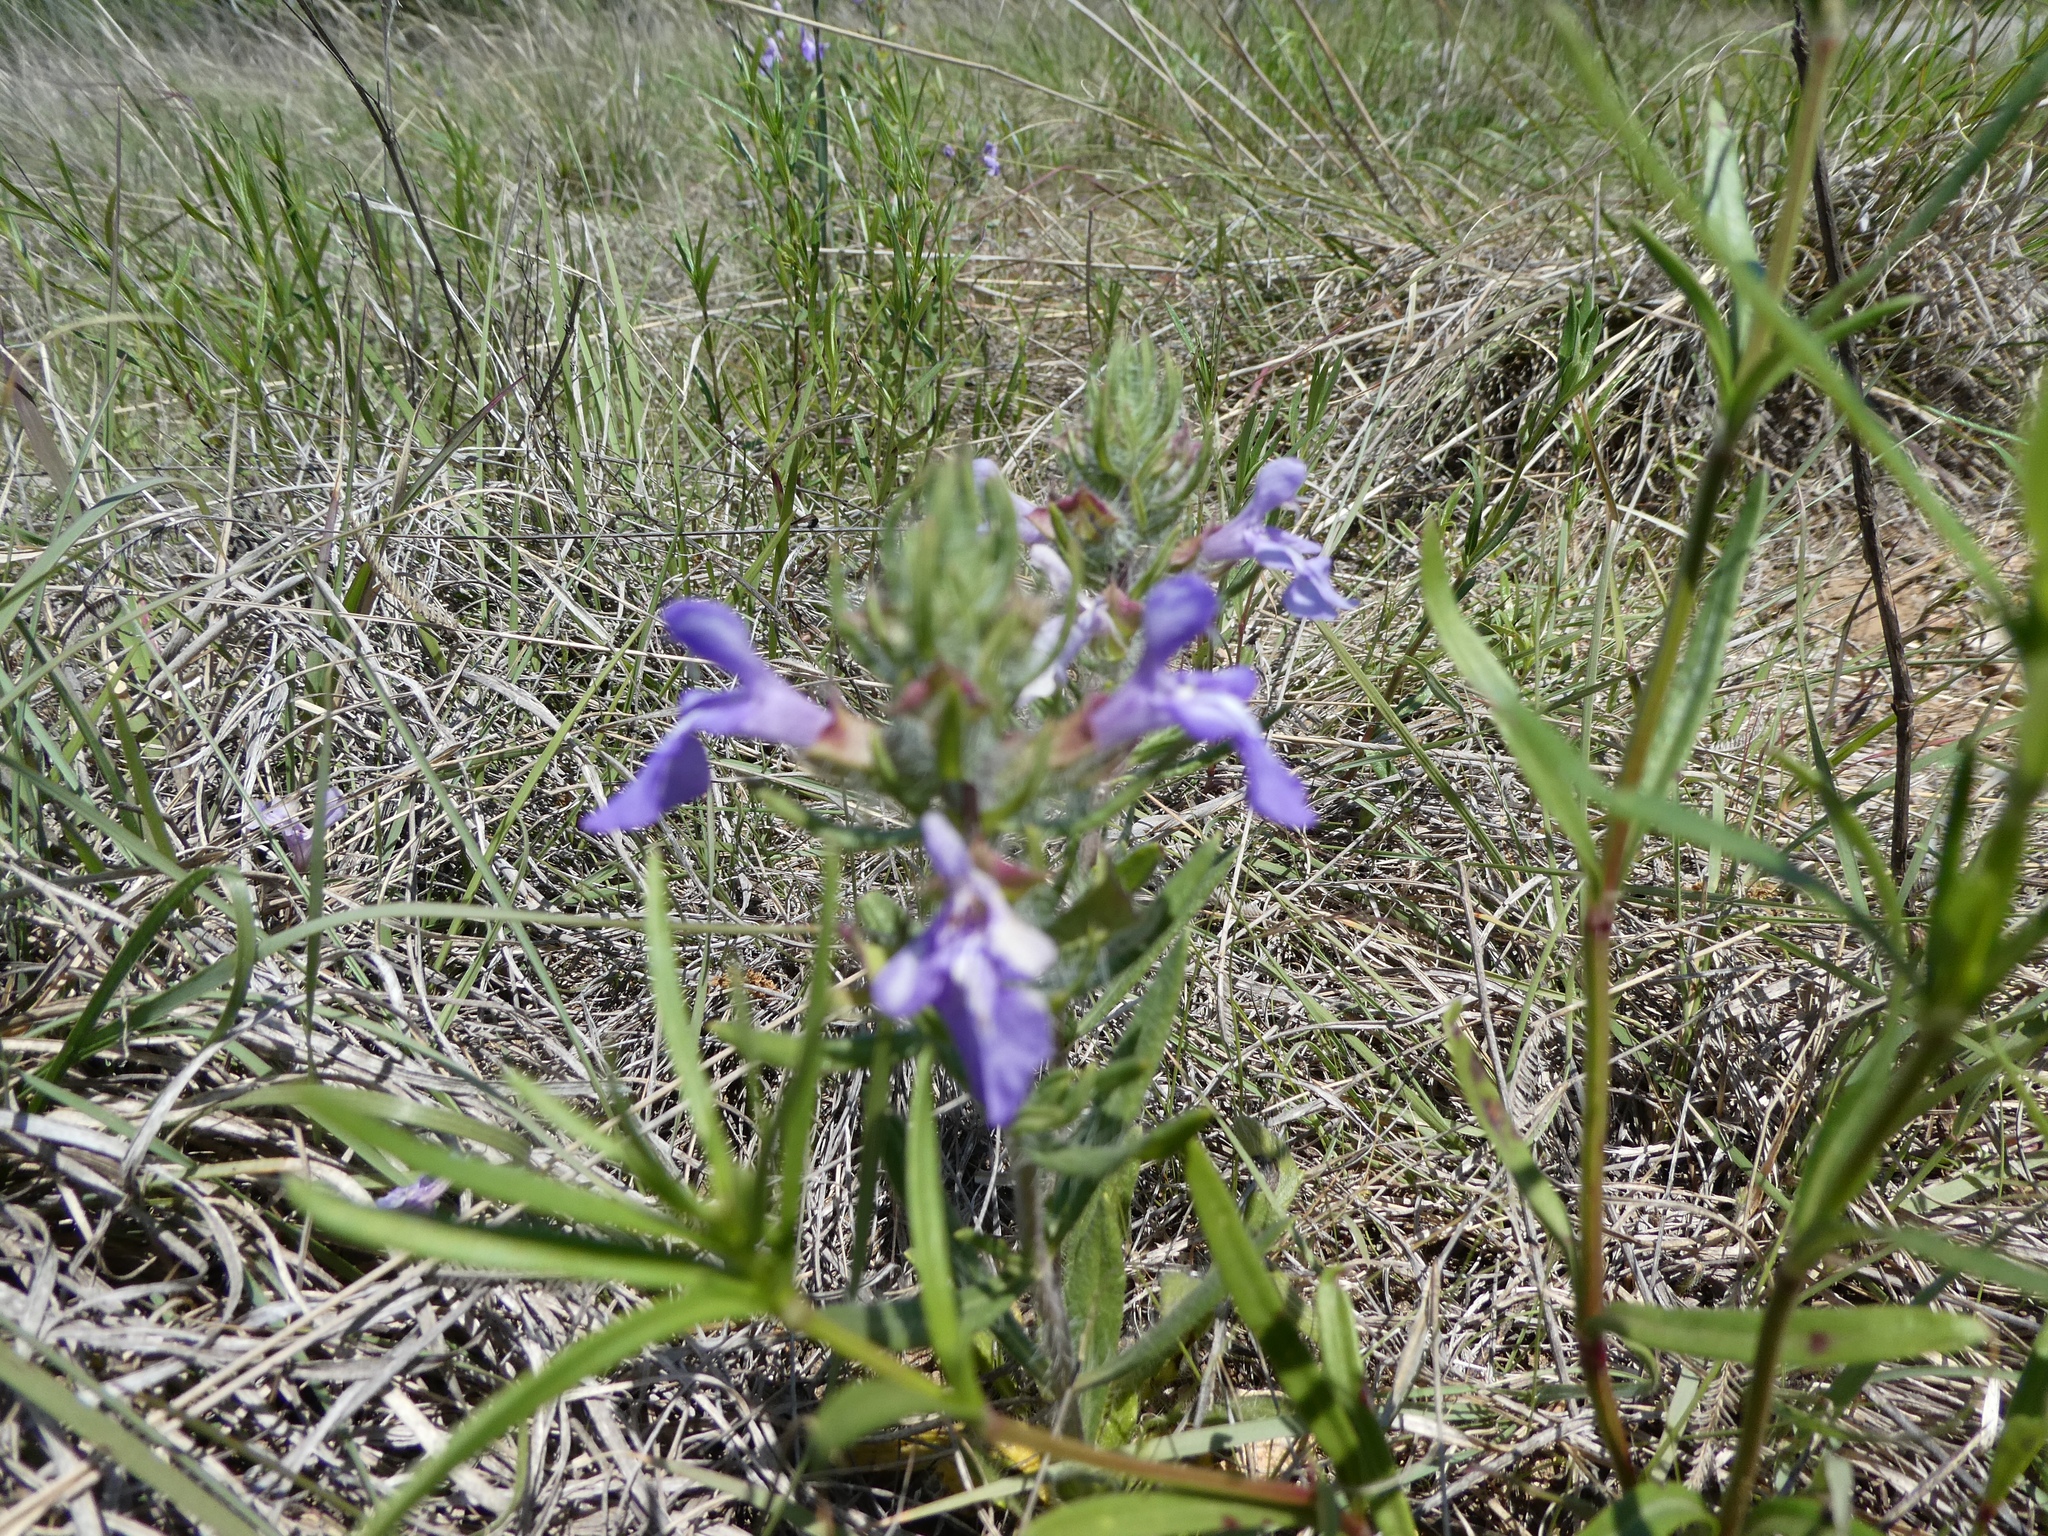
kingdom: Plantae
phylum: Tracheophyta
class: Magnoliopsida
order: Lamiales
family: Lamiaceae
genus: Salvia
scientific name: Salvia texana
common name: Texas sage
